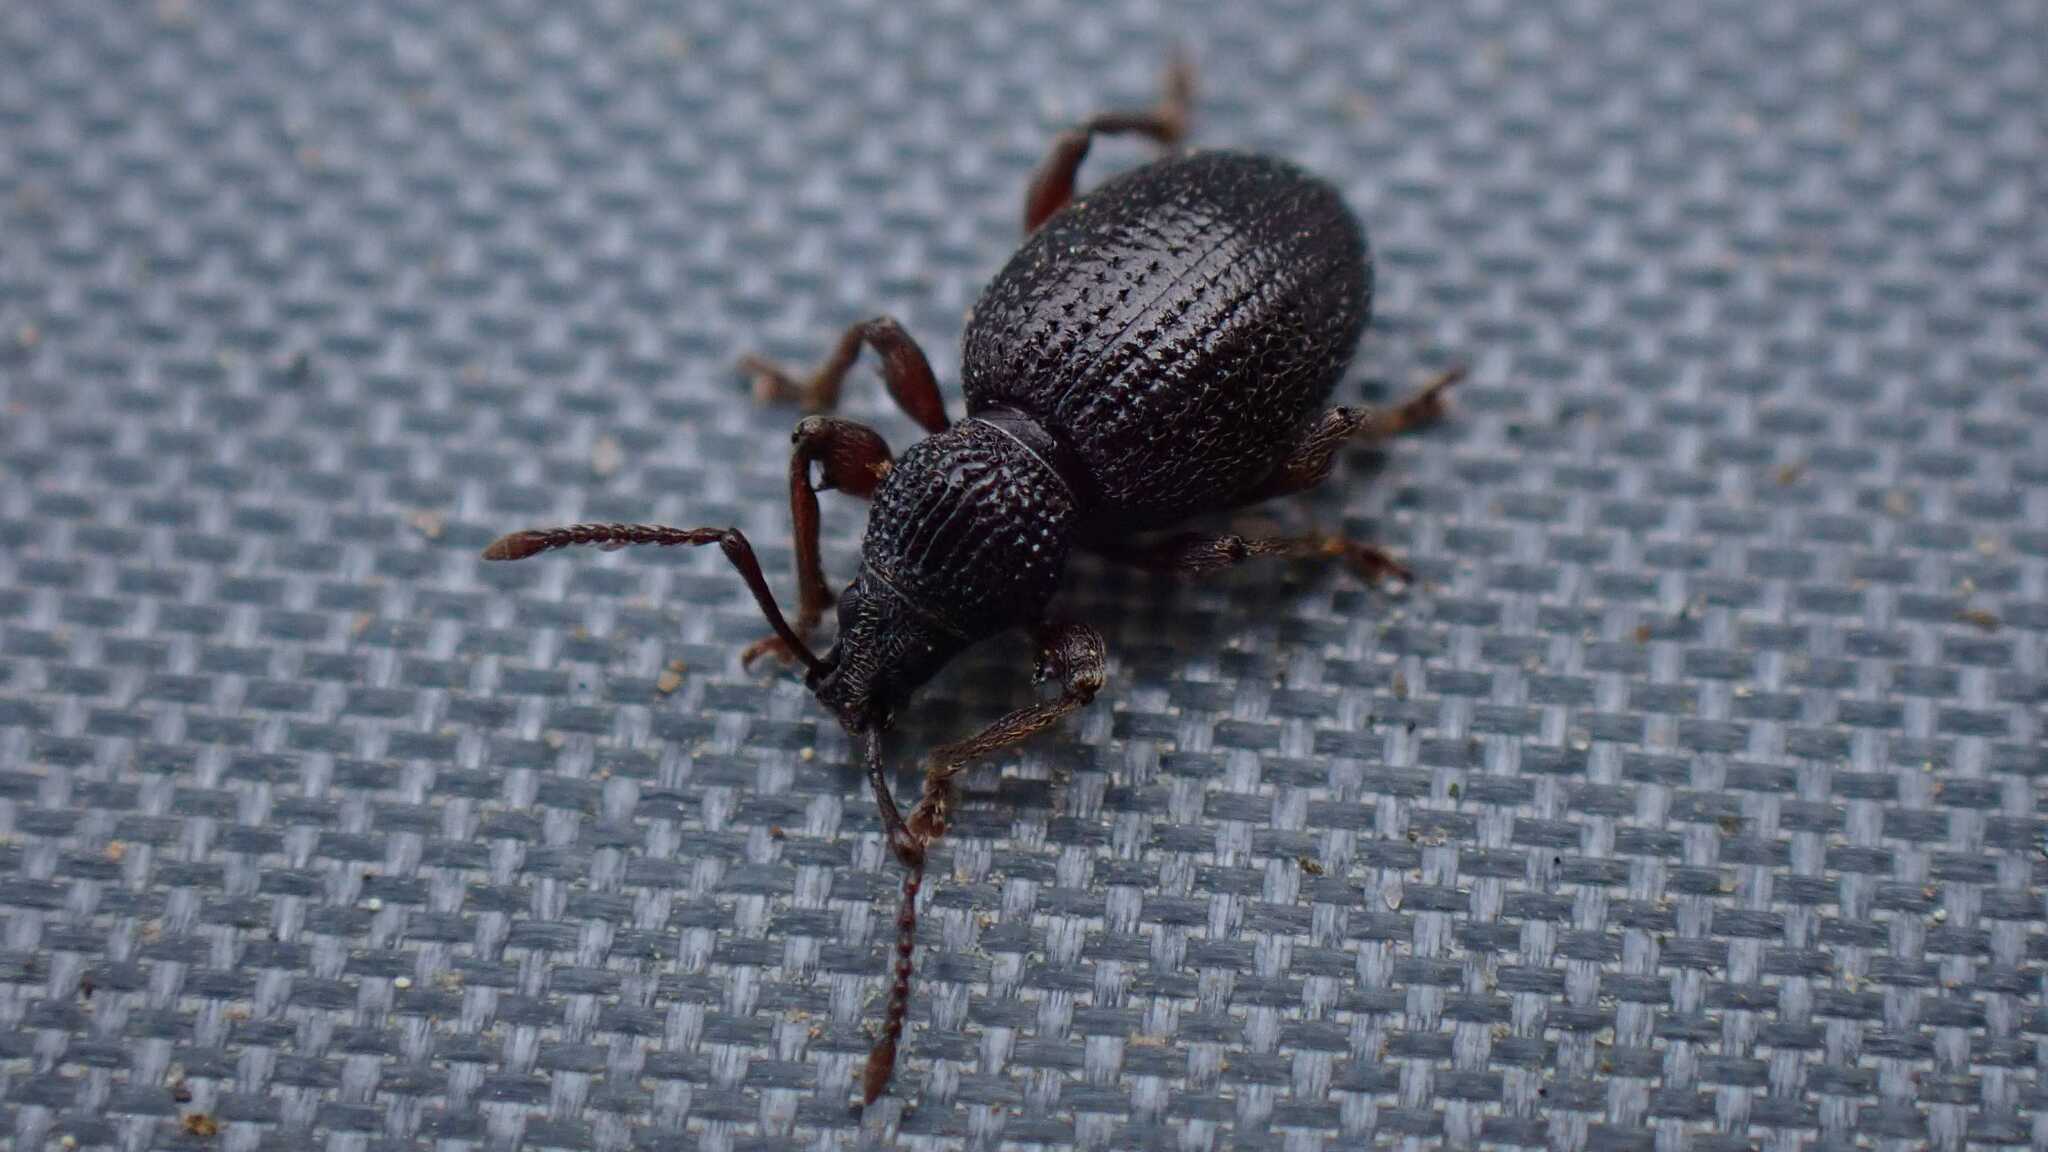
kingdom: Animalia
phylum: Arthropoda
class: Insecta
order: Coleoptera
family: Curculionidae
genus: Otiorhynchus
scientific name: Otiorhynchus ovatus
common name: Strawberry root weevil
